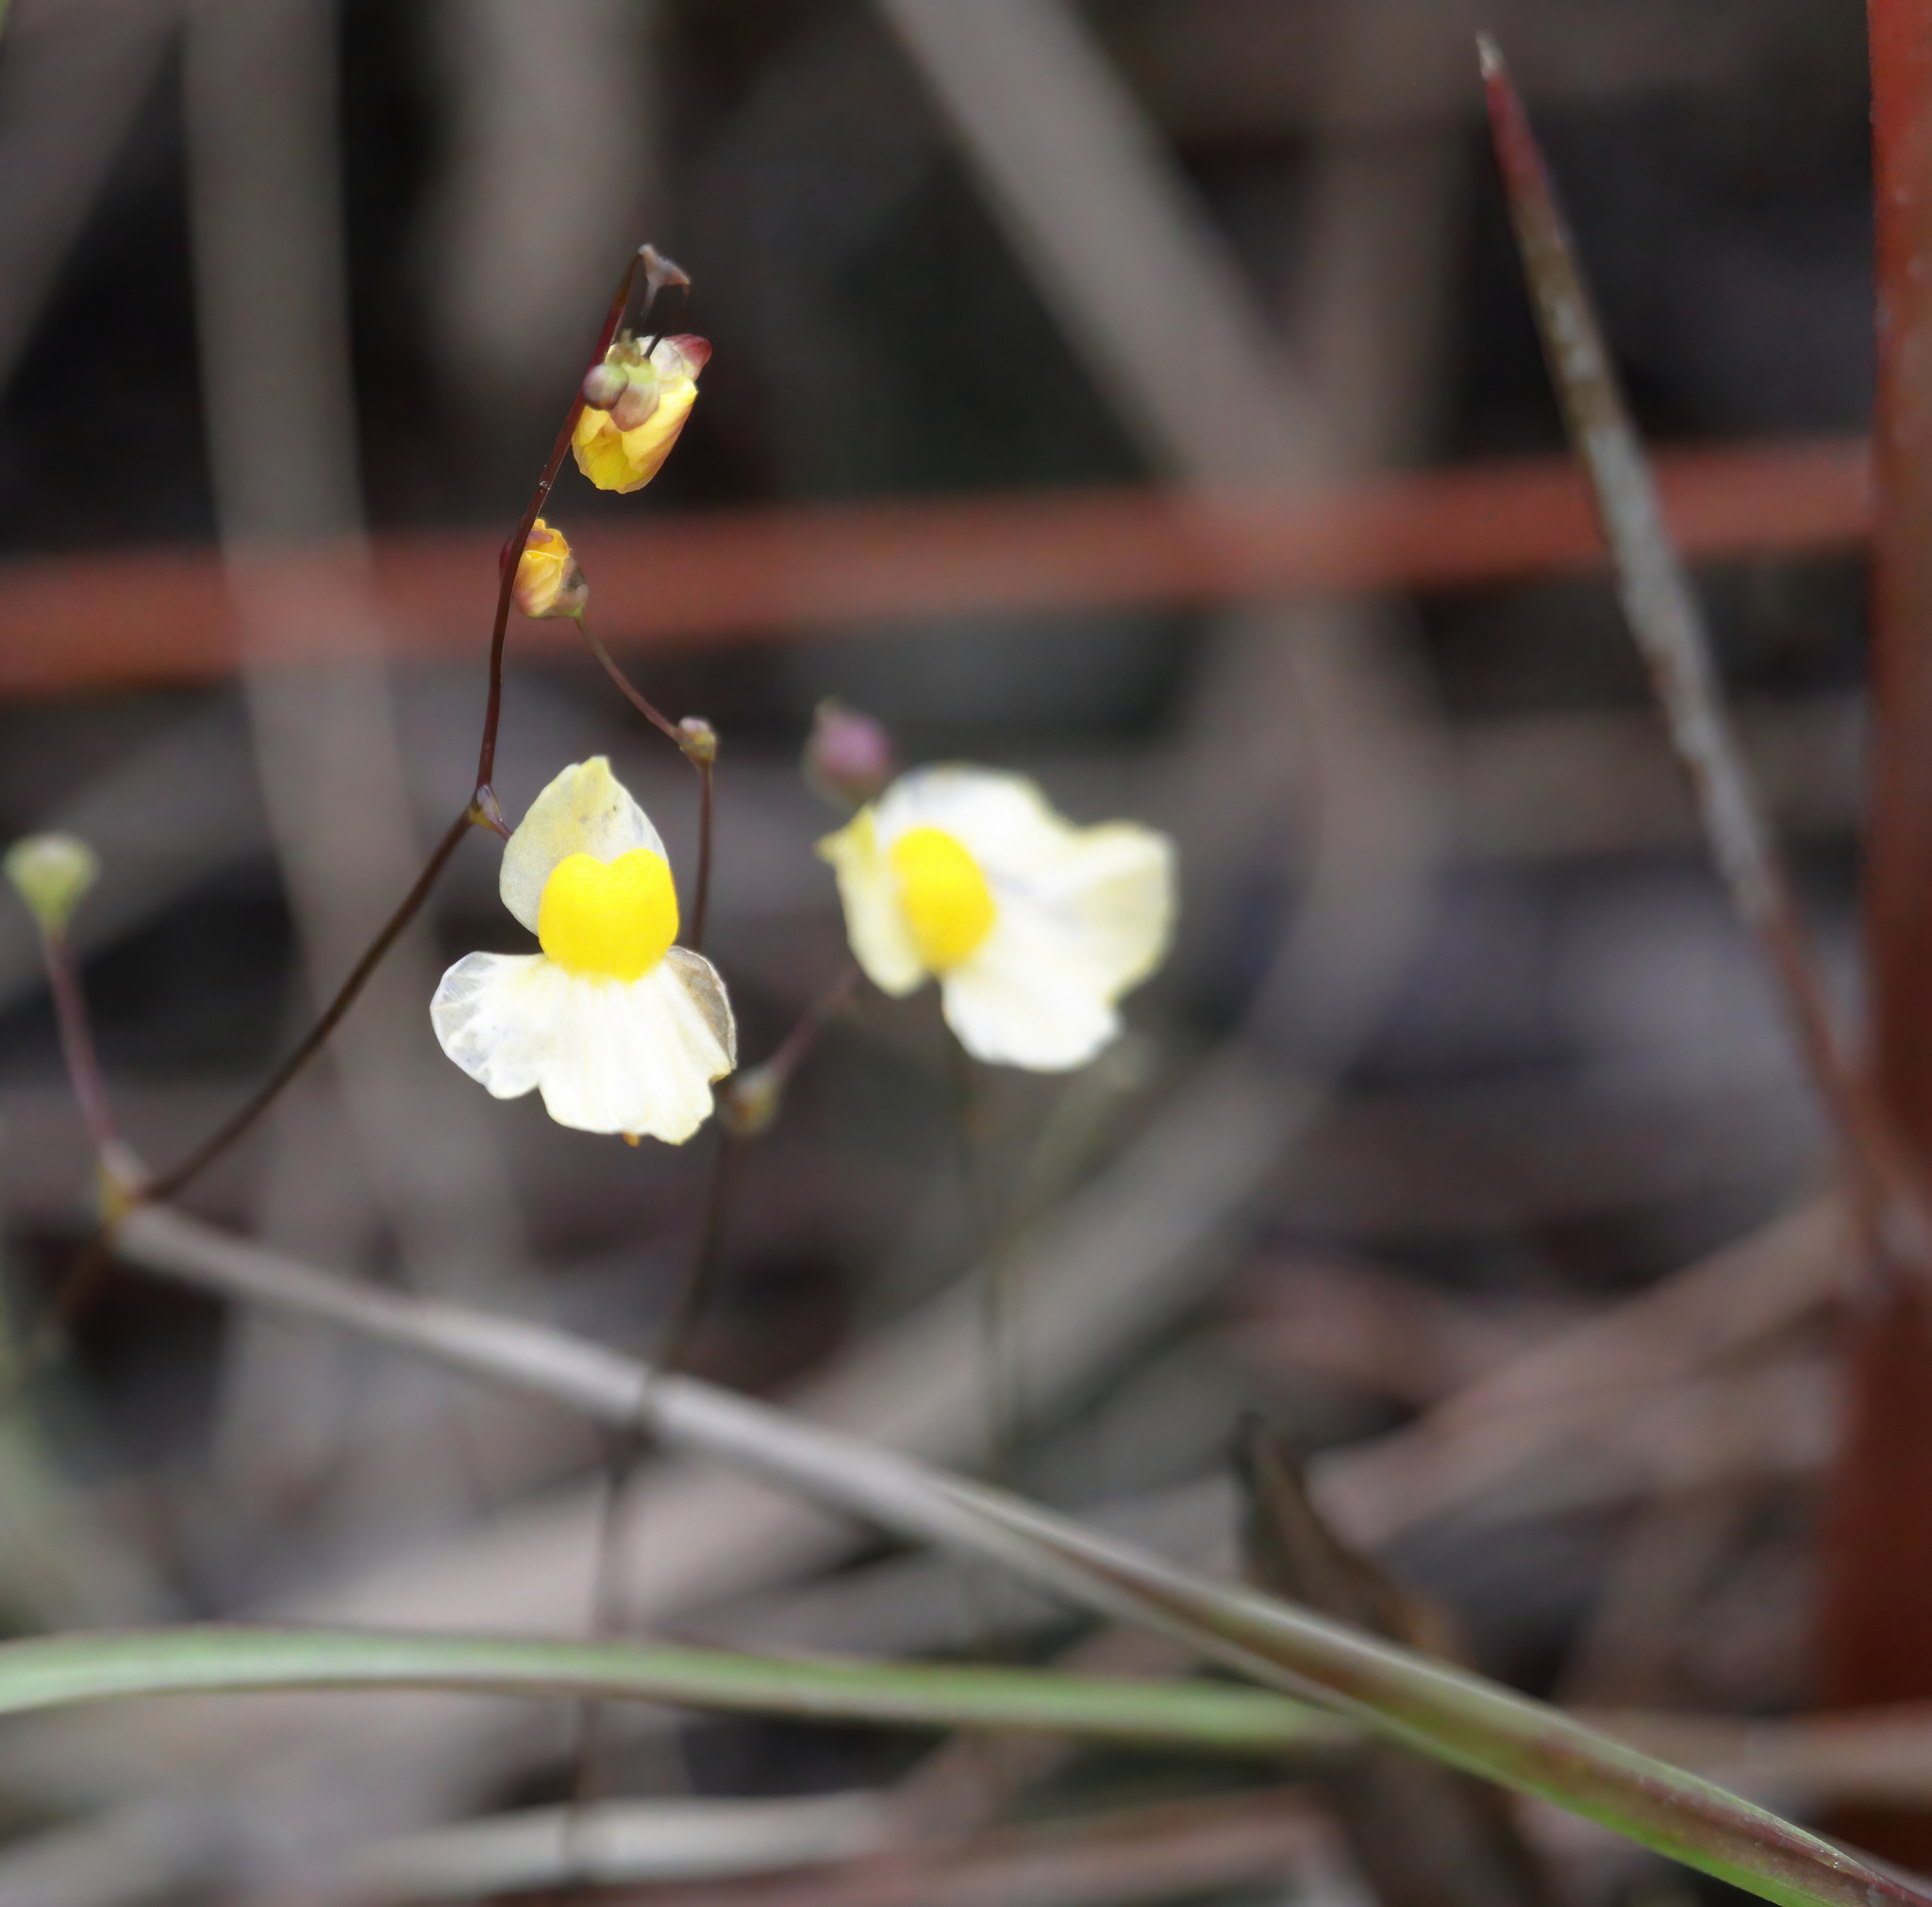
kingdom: Plantae
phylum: Tracheophyta
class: Magnoliopsida
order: Lamiales
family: Lentibulariaceae
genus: Utricularia
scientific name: Utricularia subulata
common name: Tiny bladderwort
